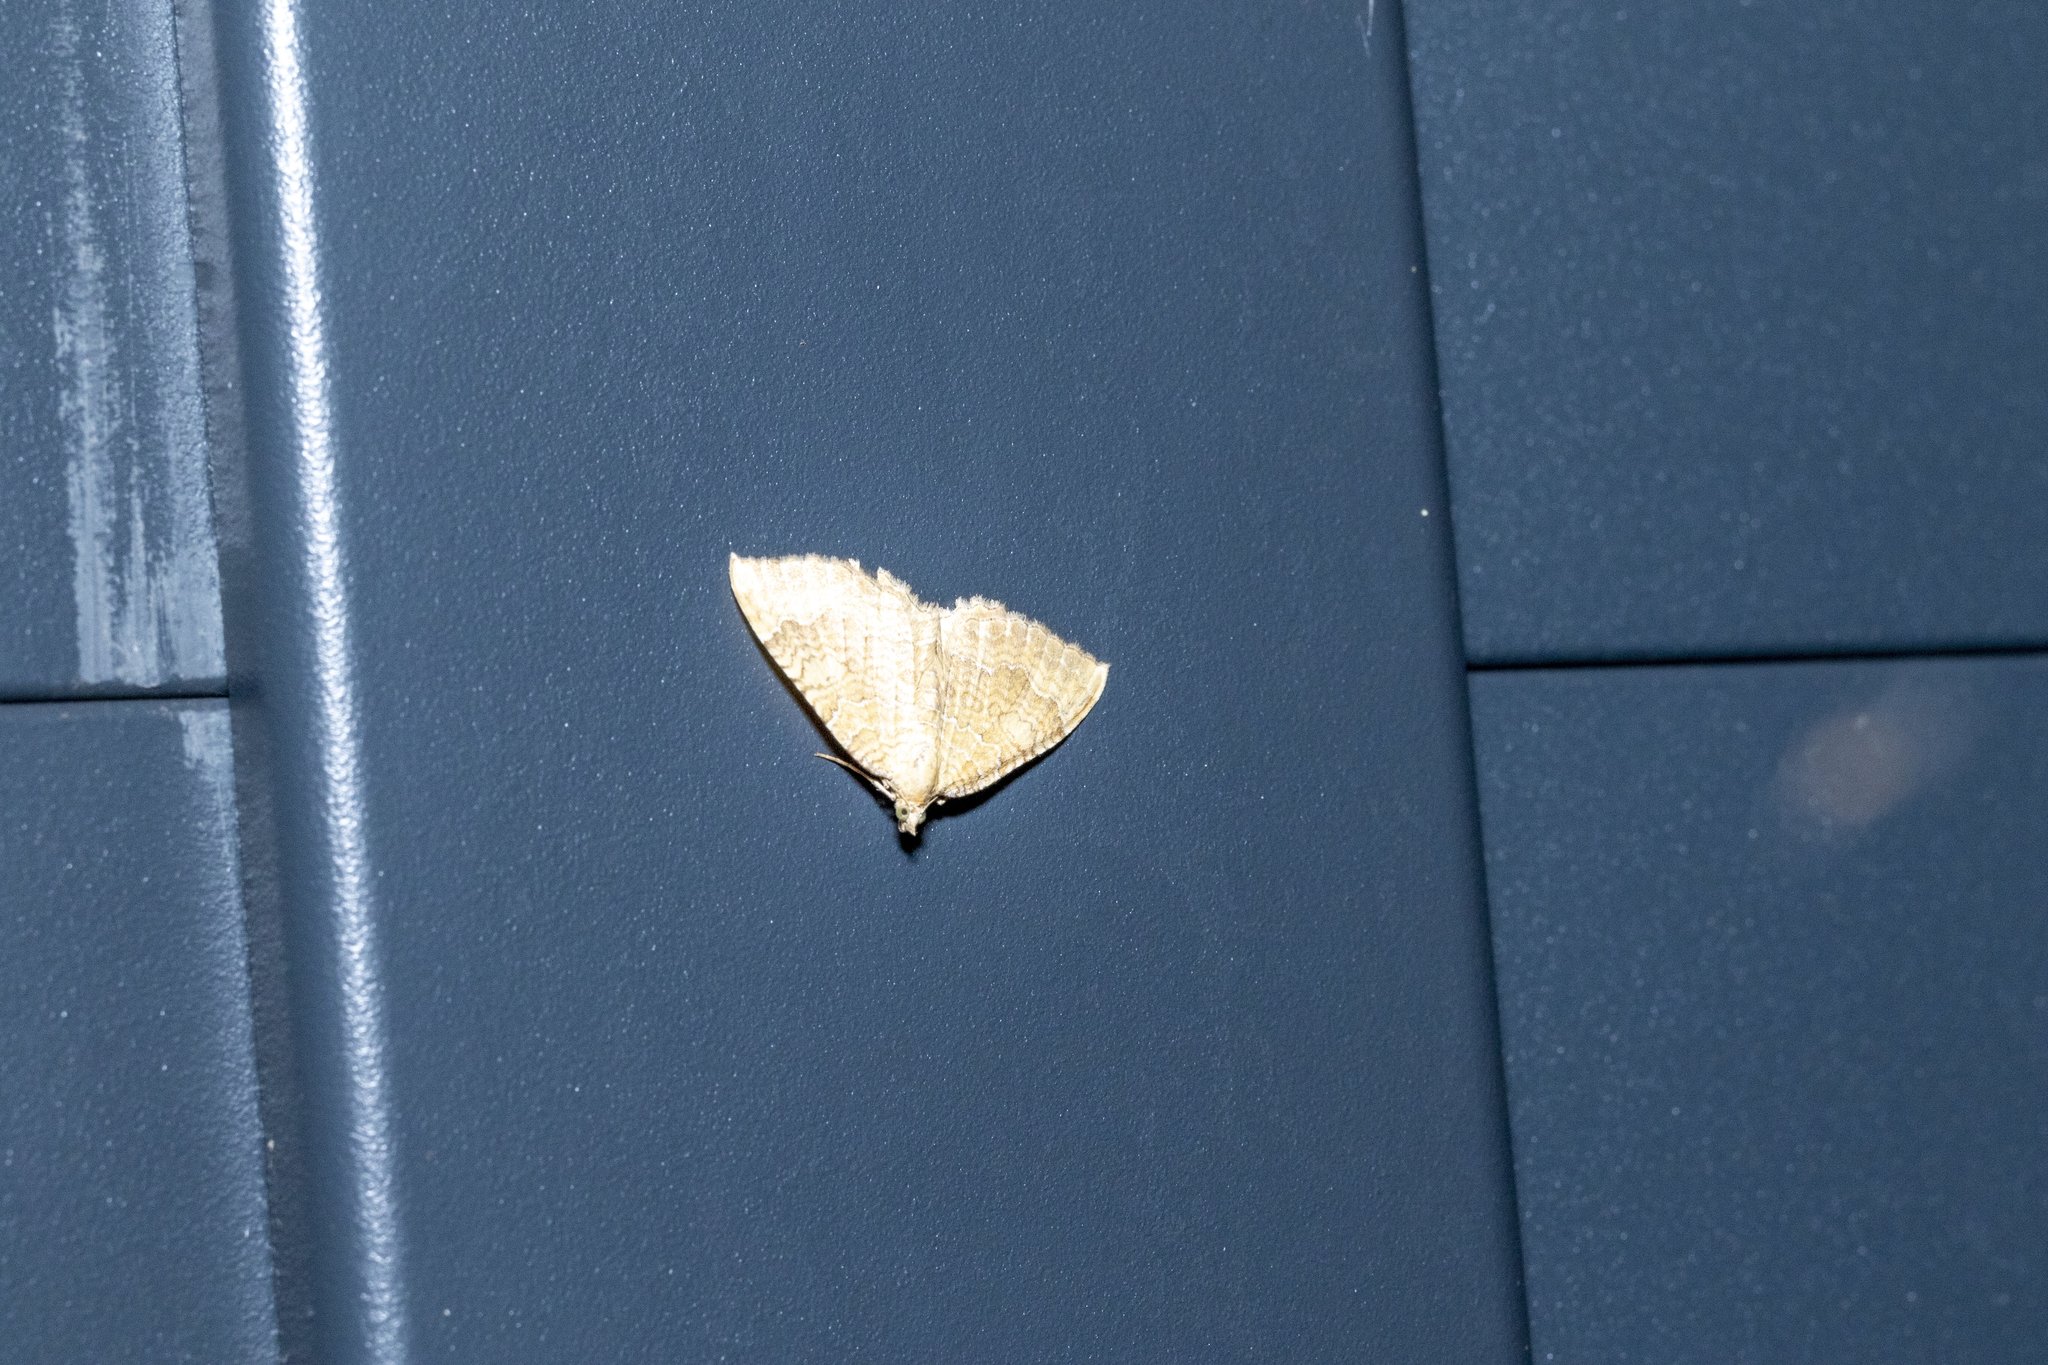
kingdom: Animalia
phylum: Arthropoda
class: Insecta
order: Lepidoptera
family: Geometridae
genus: Camptogramma
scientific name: Camptogramma bilineata
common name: Yellow shell
